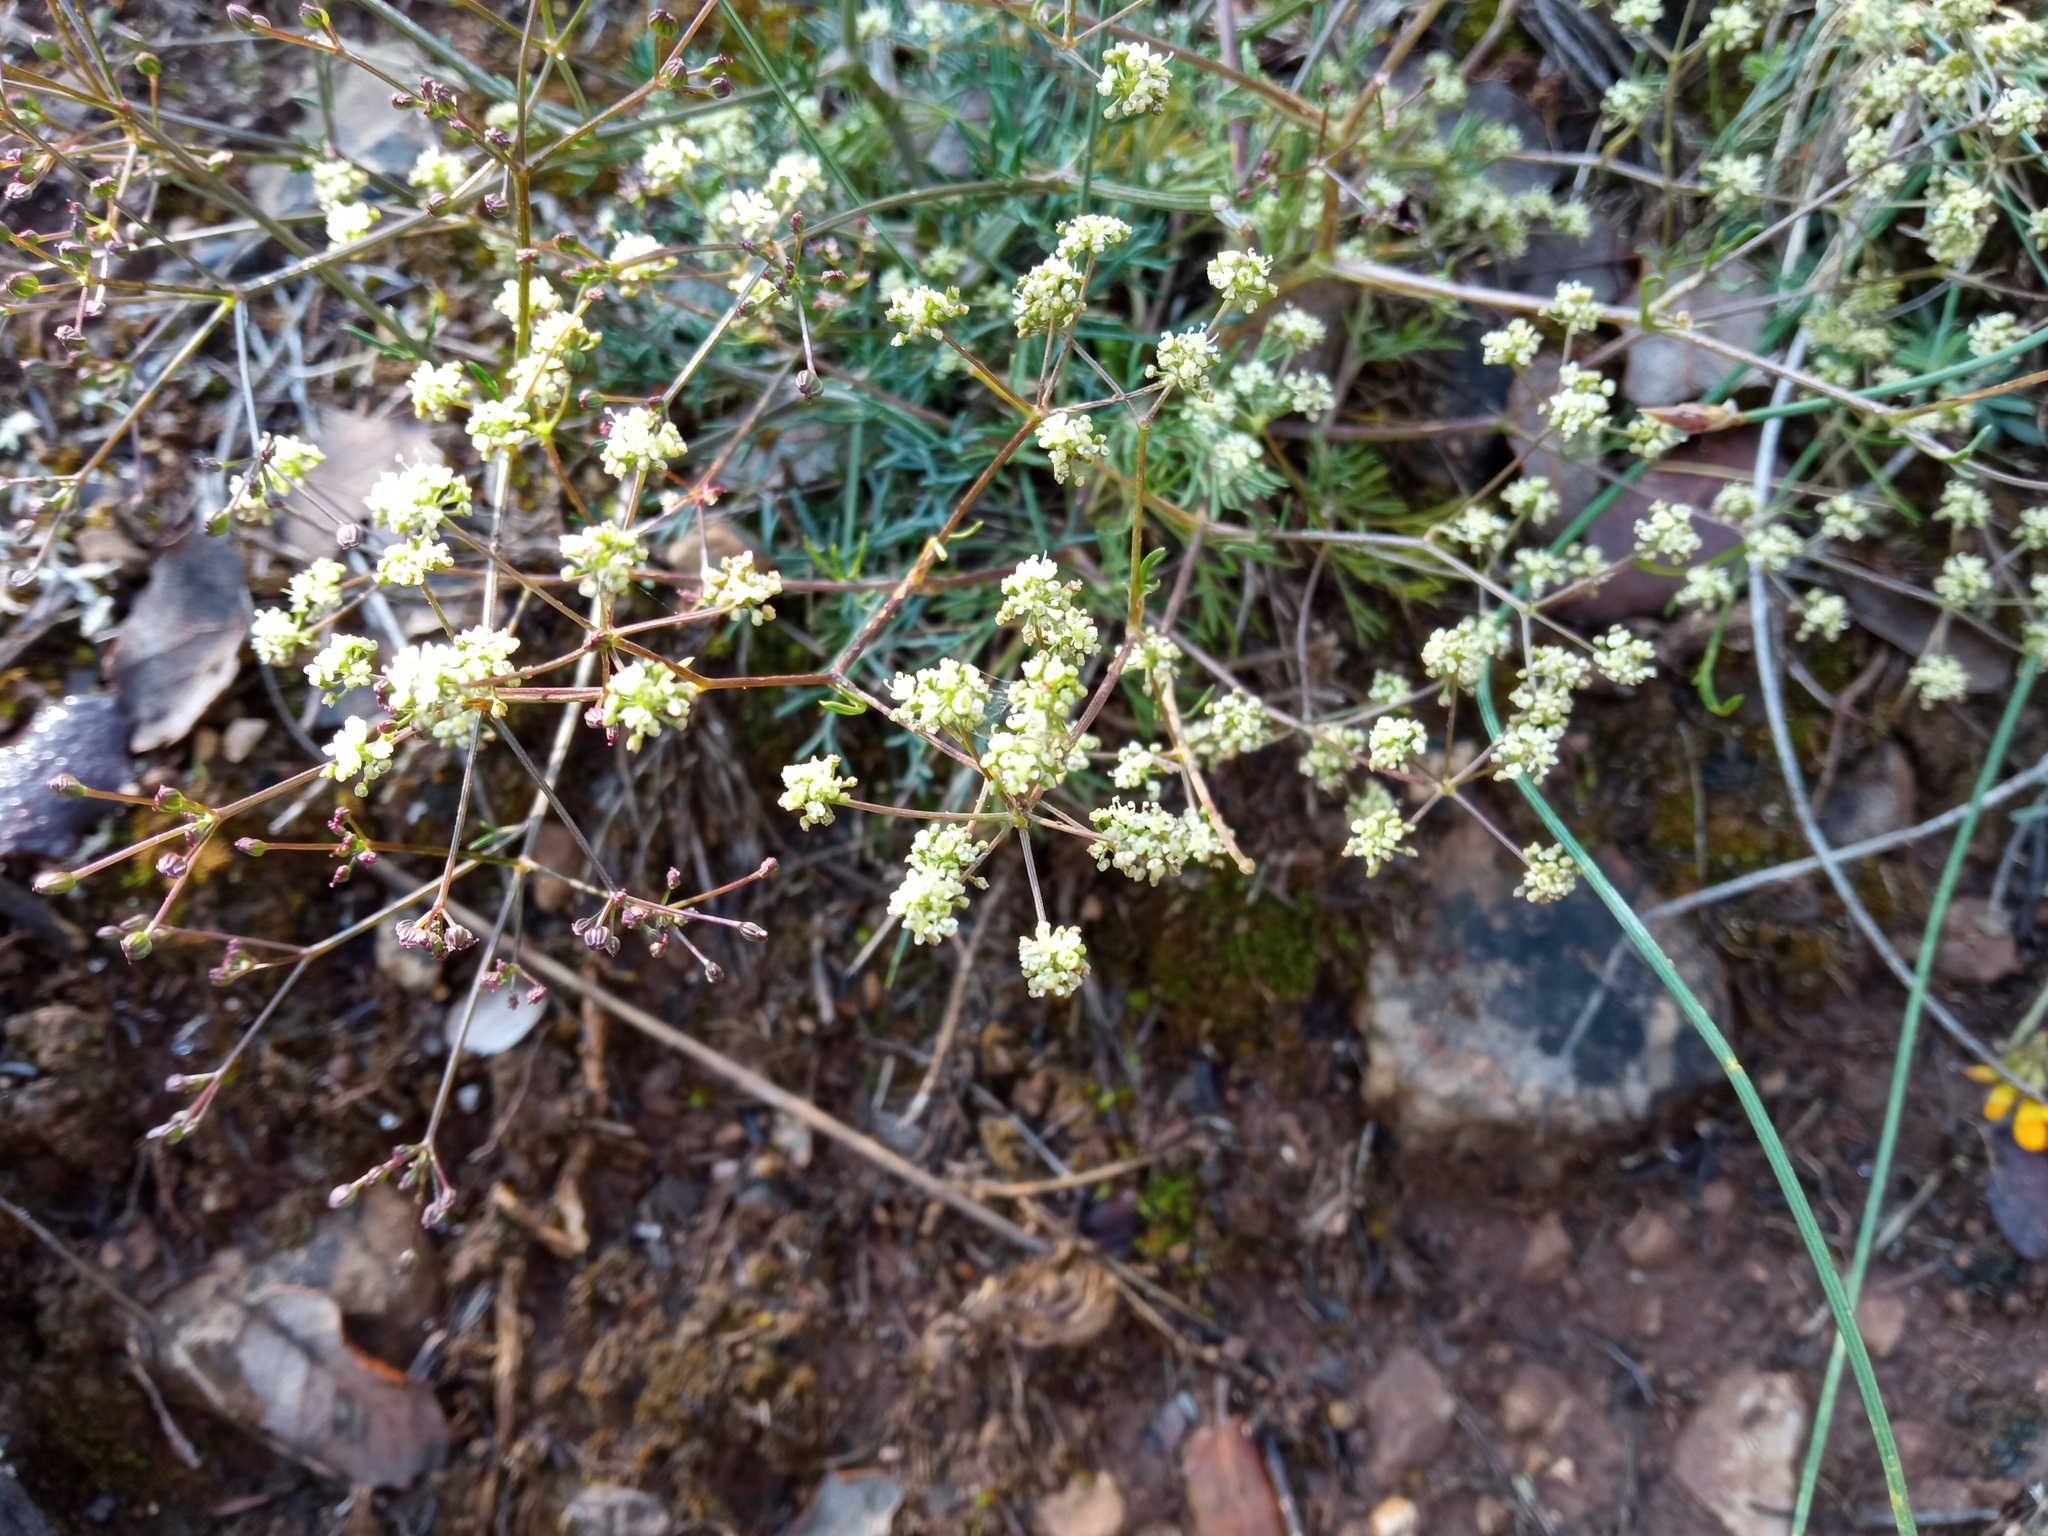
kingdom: Plantae
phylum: Tracheophyta
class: Magnoliopsida
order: Apiales
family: Apiaceae
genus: Trinia
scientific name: Trinia glauca
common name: Honewort
